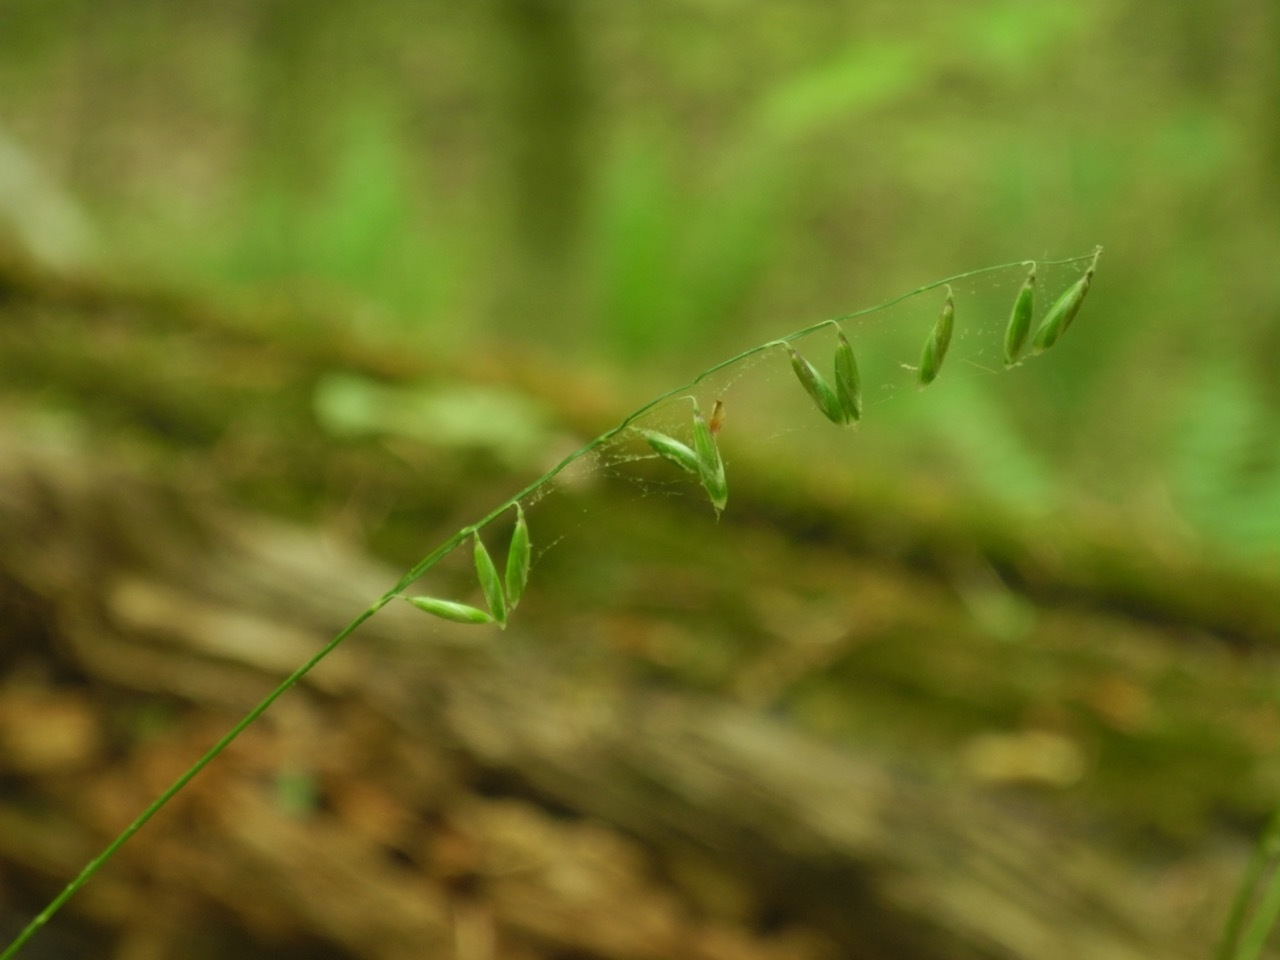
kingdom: Plantae
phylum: Tracheophyta
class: Liliopsida
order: Poales
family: Poaceae
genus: Melica
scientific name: Melica mutica
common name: Two-flower melic
